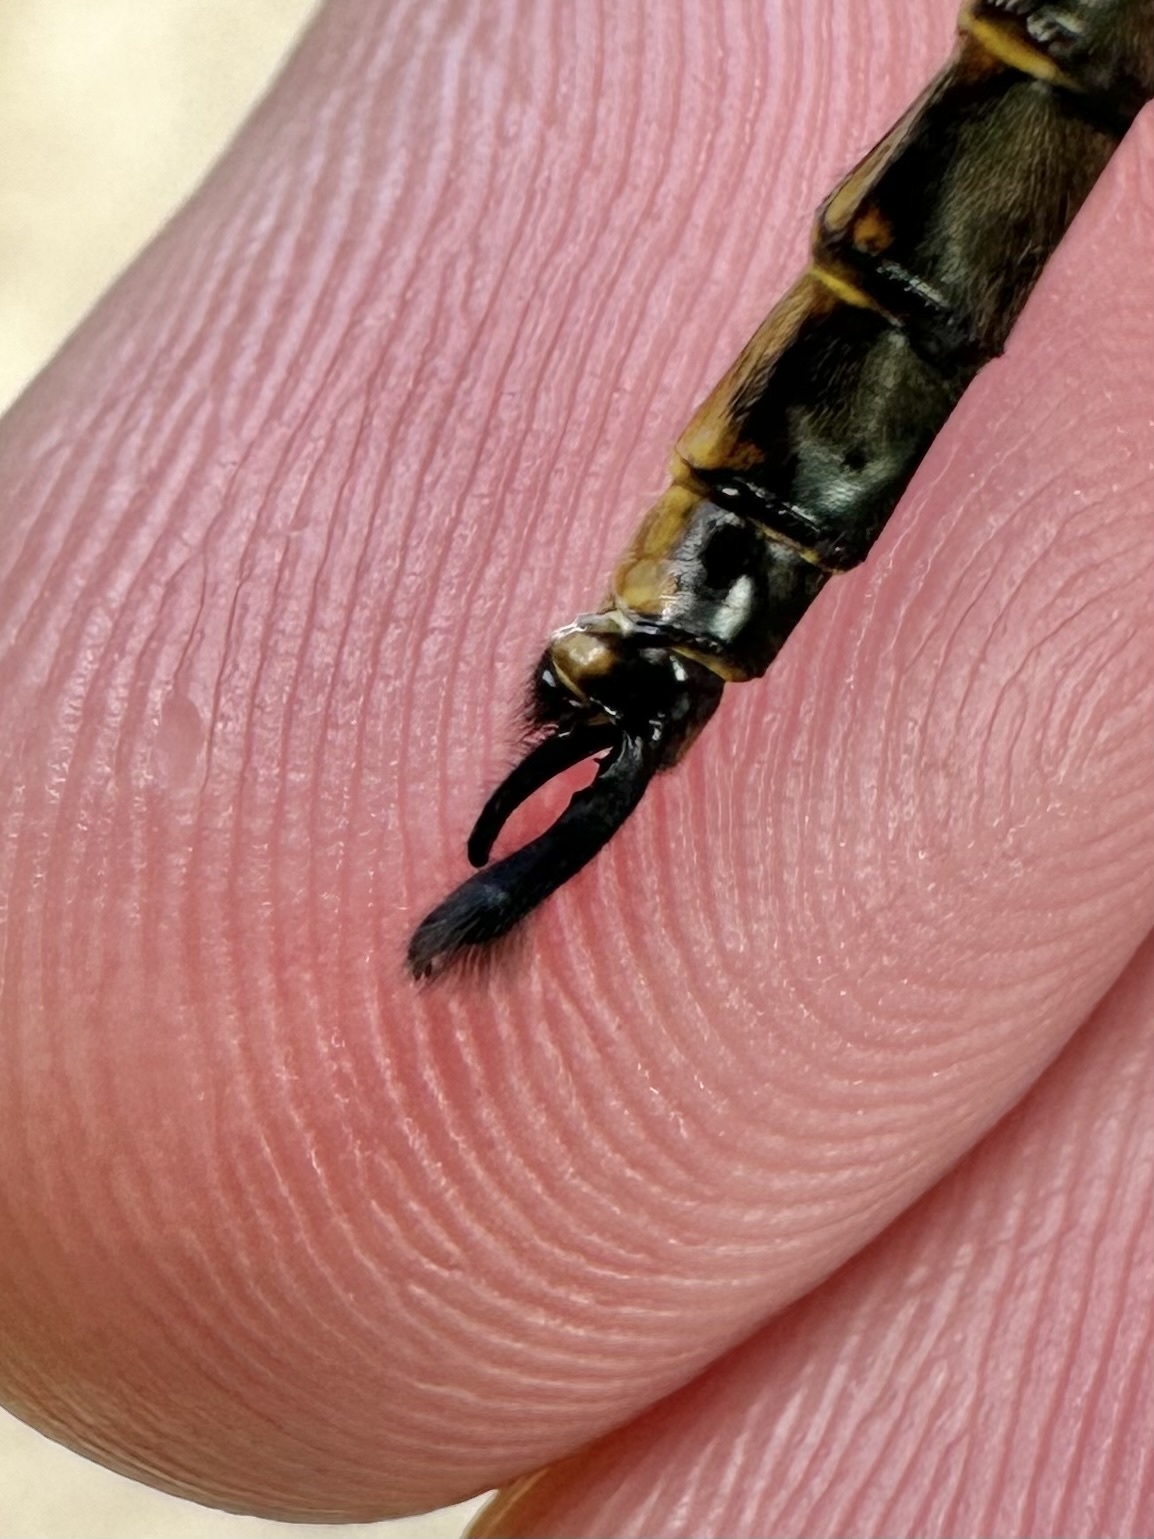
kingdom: Animalia
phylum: Arthropoda
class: Insecta
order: Odonata
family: Corduliidae
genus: Somatochlora
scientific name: Somatochlora walshii
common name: Brush-tipped emerald
